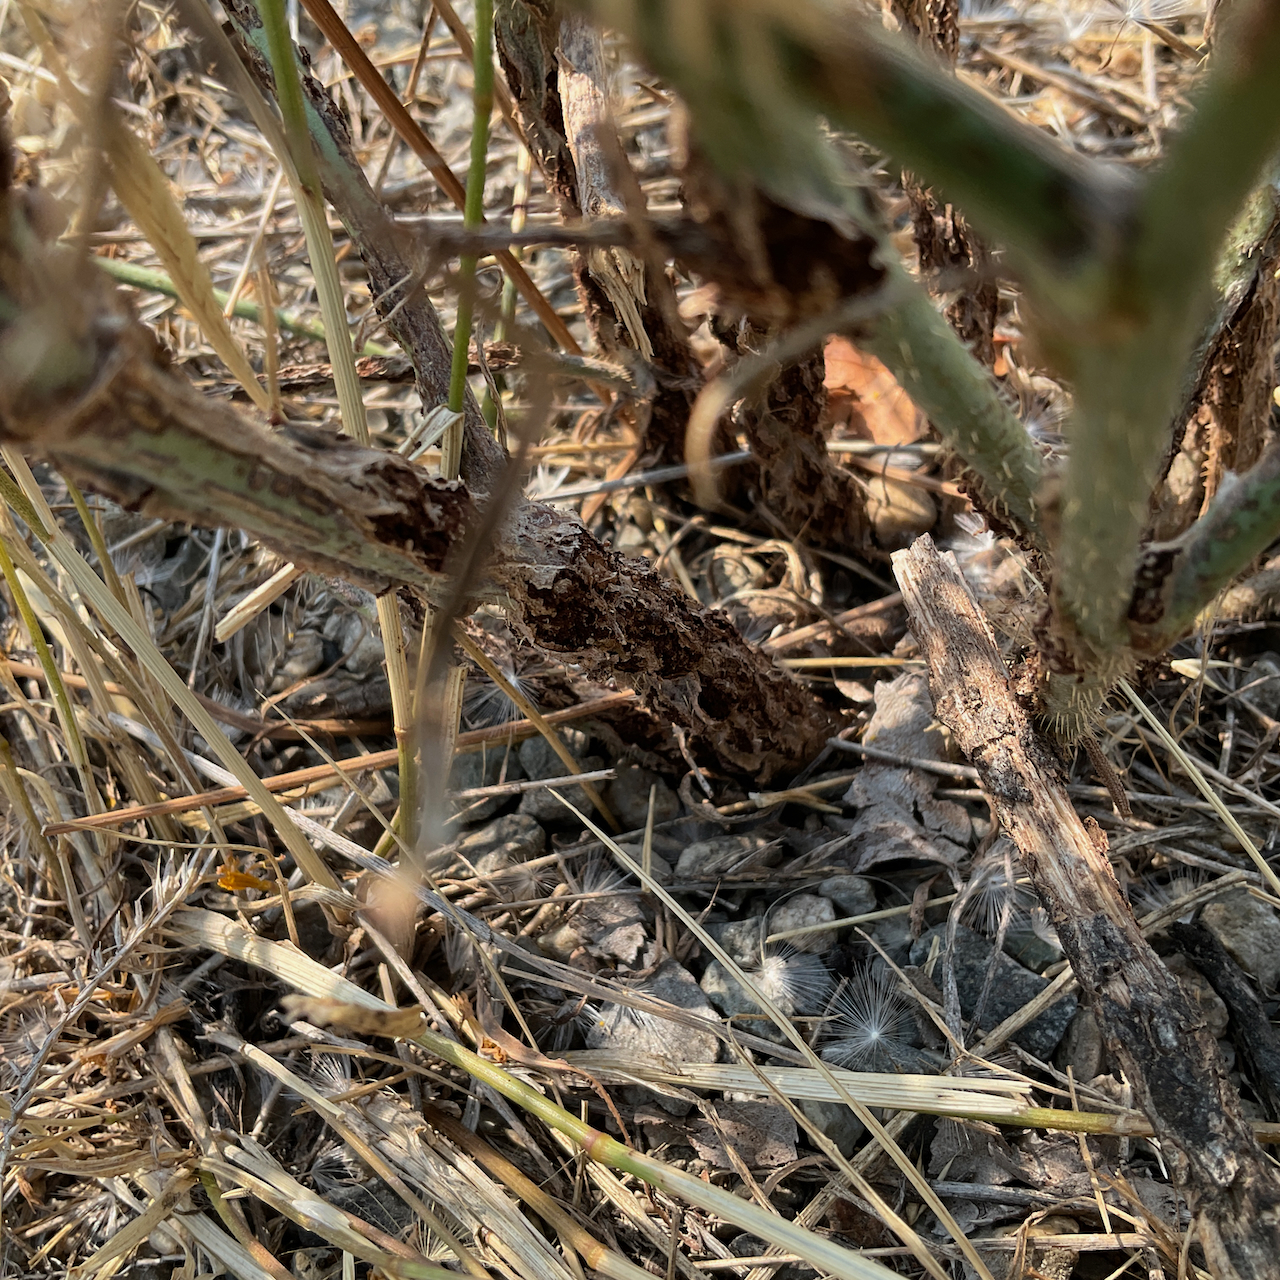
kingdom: Plantae
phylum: Tracheophyta
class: Magnoliopsida
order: Asterales
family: Asteraceae
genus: Chondrilla
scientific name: Chondrilla juncea
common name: Skeleton weed
